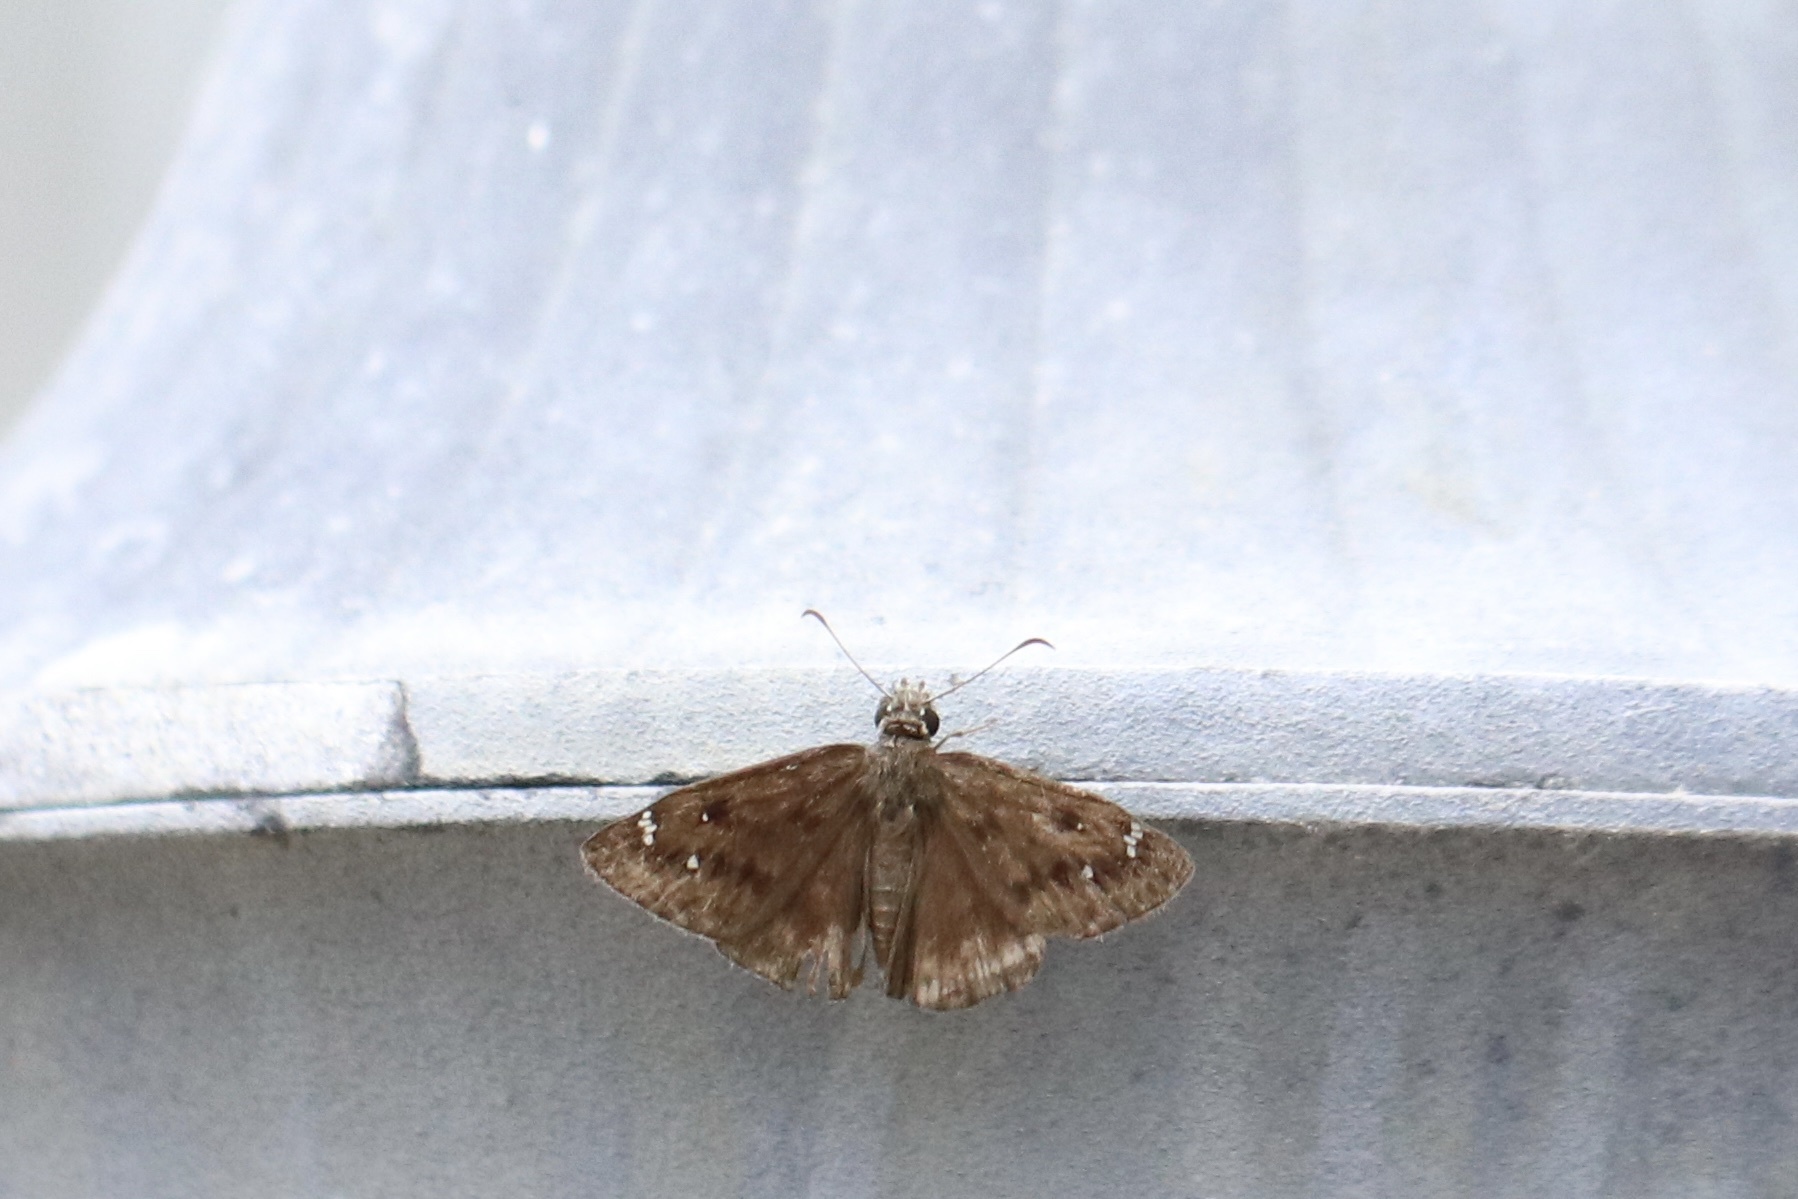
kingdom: Animalia
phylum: Arthropoda
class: Insecta
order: Lepidoptera
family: Hesperiidae
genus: Erynnis
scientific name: Erynnis horatius
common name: Horace's duskywing
